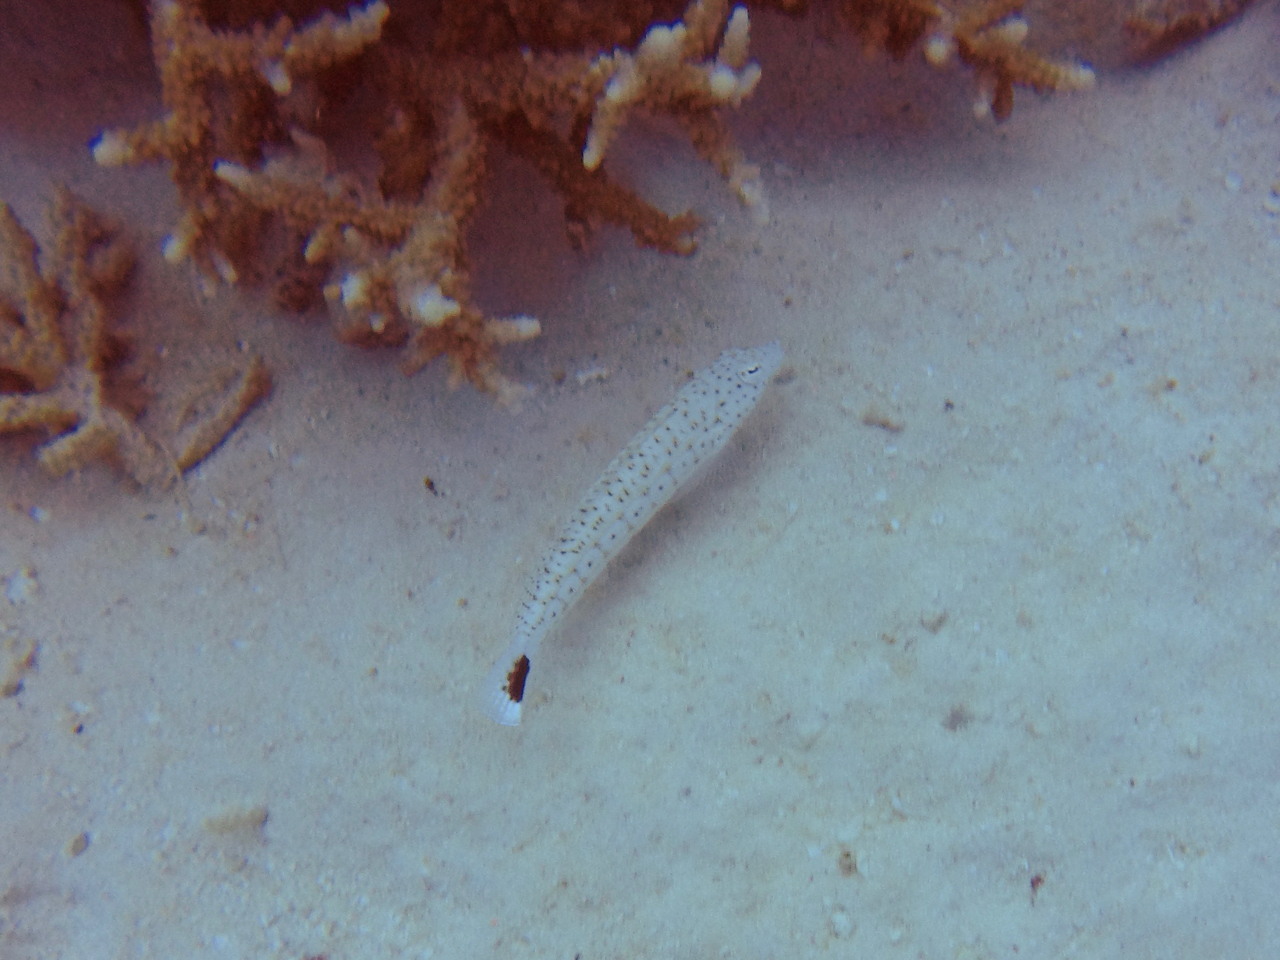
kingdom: Animalia
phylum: Chordata
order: Perciformes
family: Pinguipedidae
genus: Parapercis
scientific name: Parapercis queenslandica
